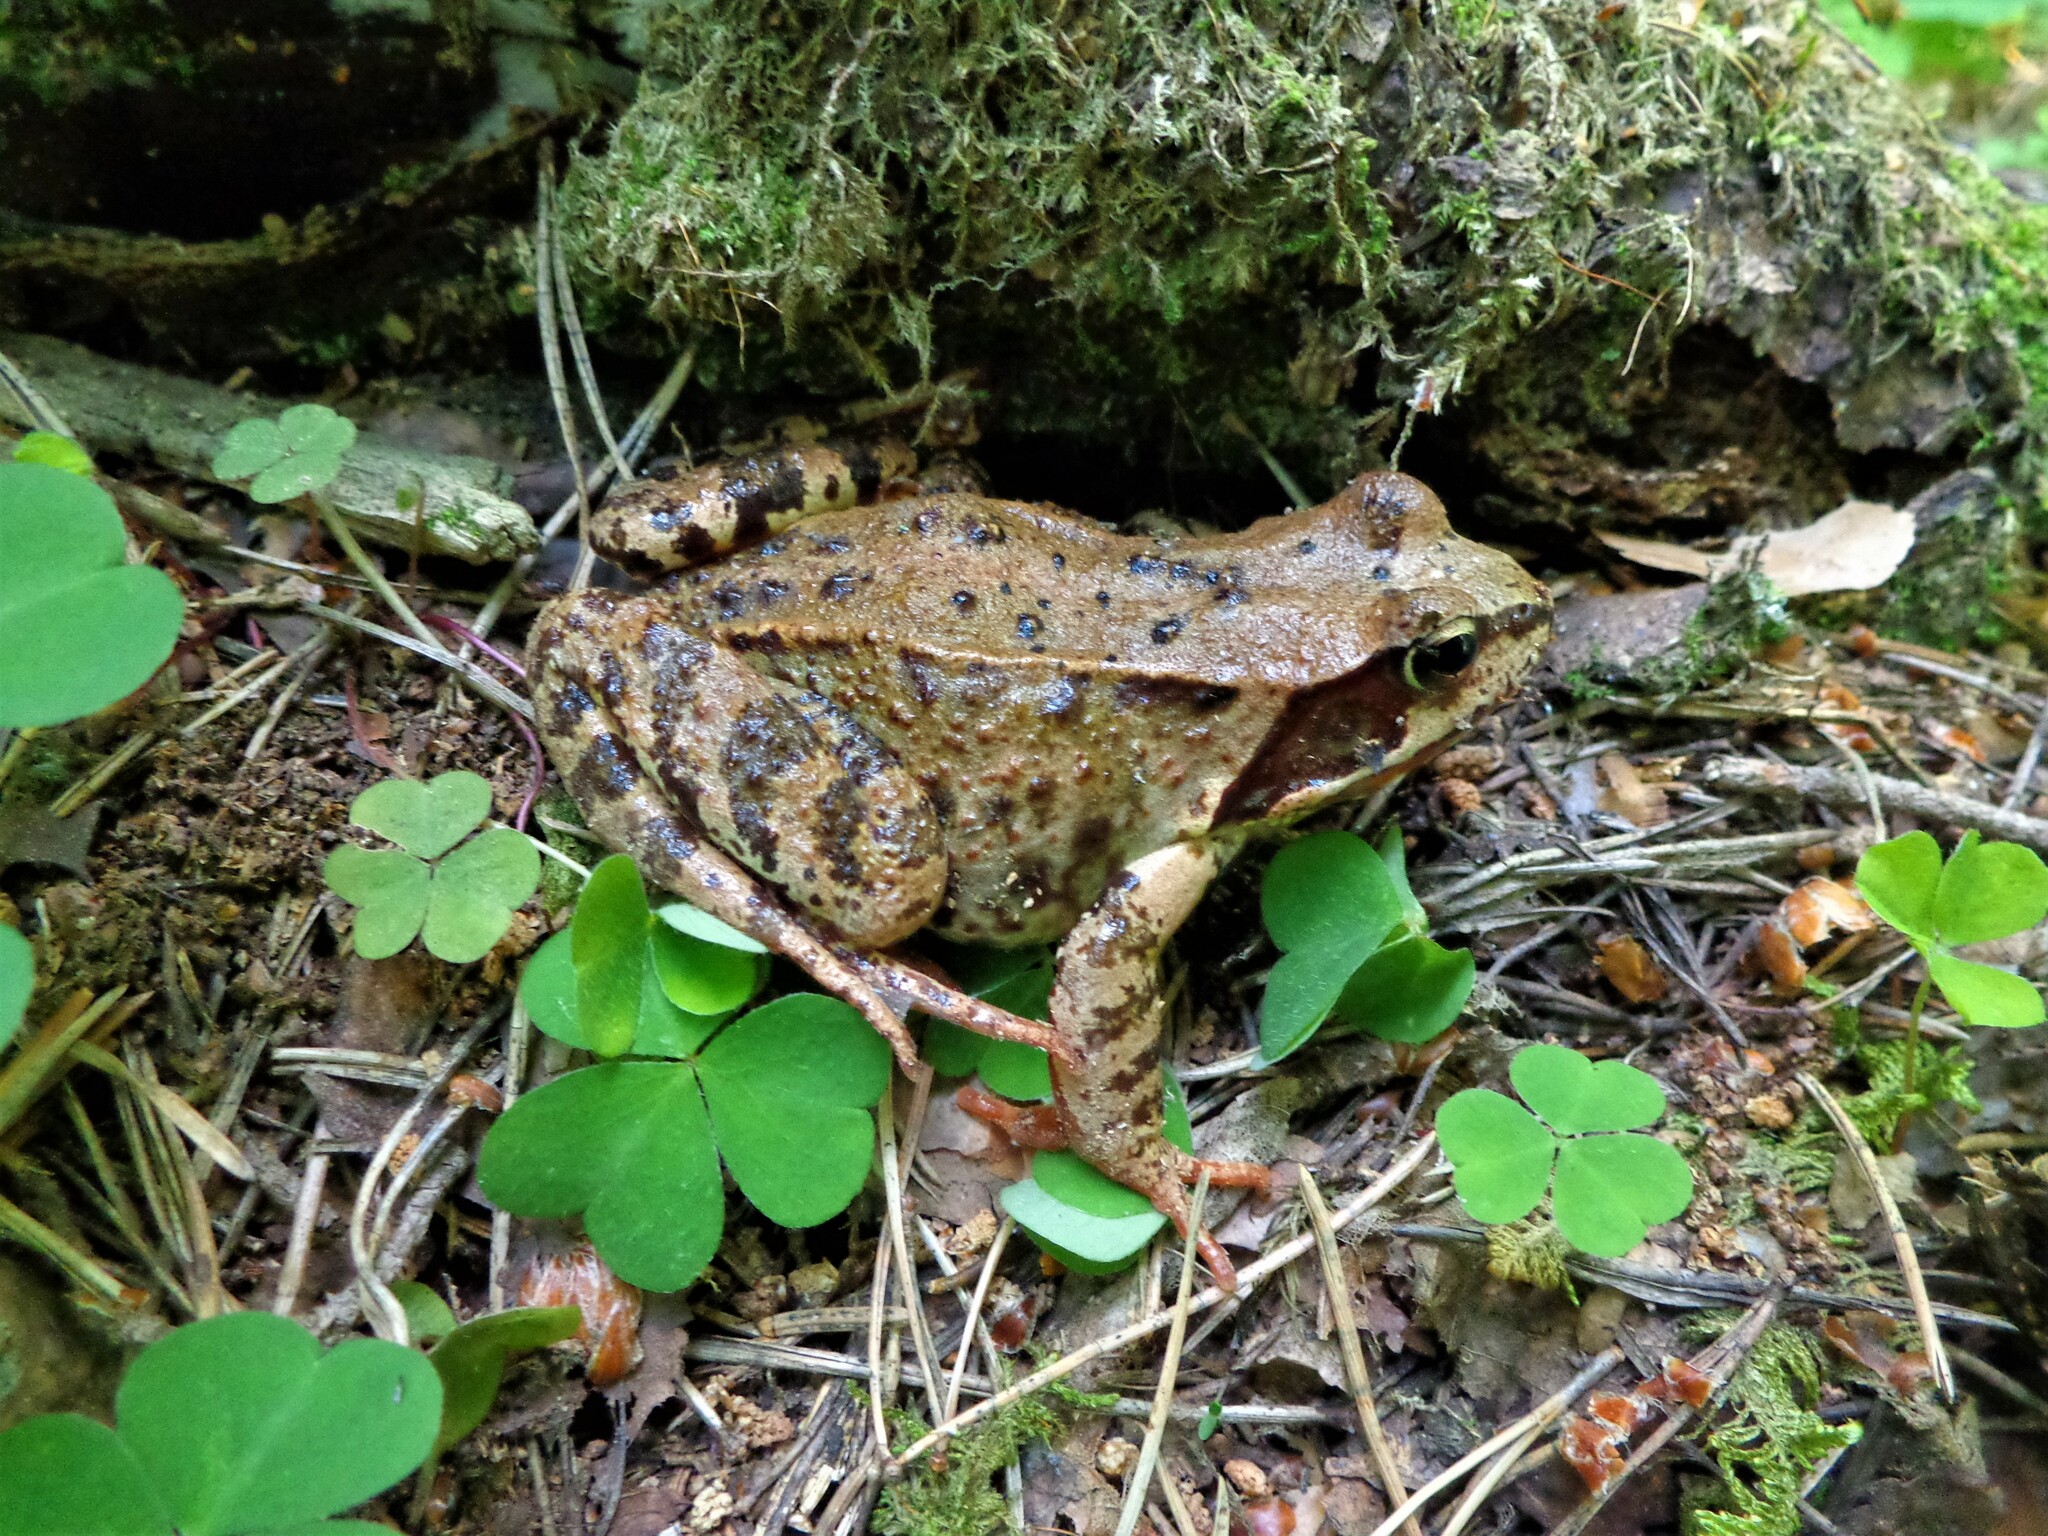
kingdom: Animalia
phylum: Chordata
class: Amphibia
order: Anura
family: Ranidae
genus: Rana
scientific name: Rana temporaria
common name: Common frog
